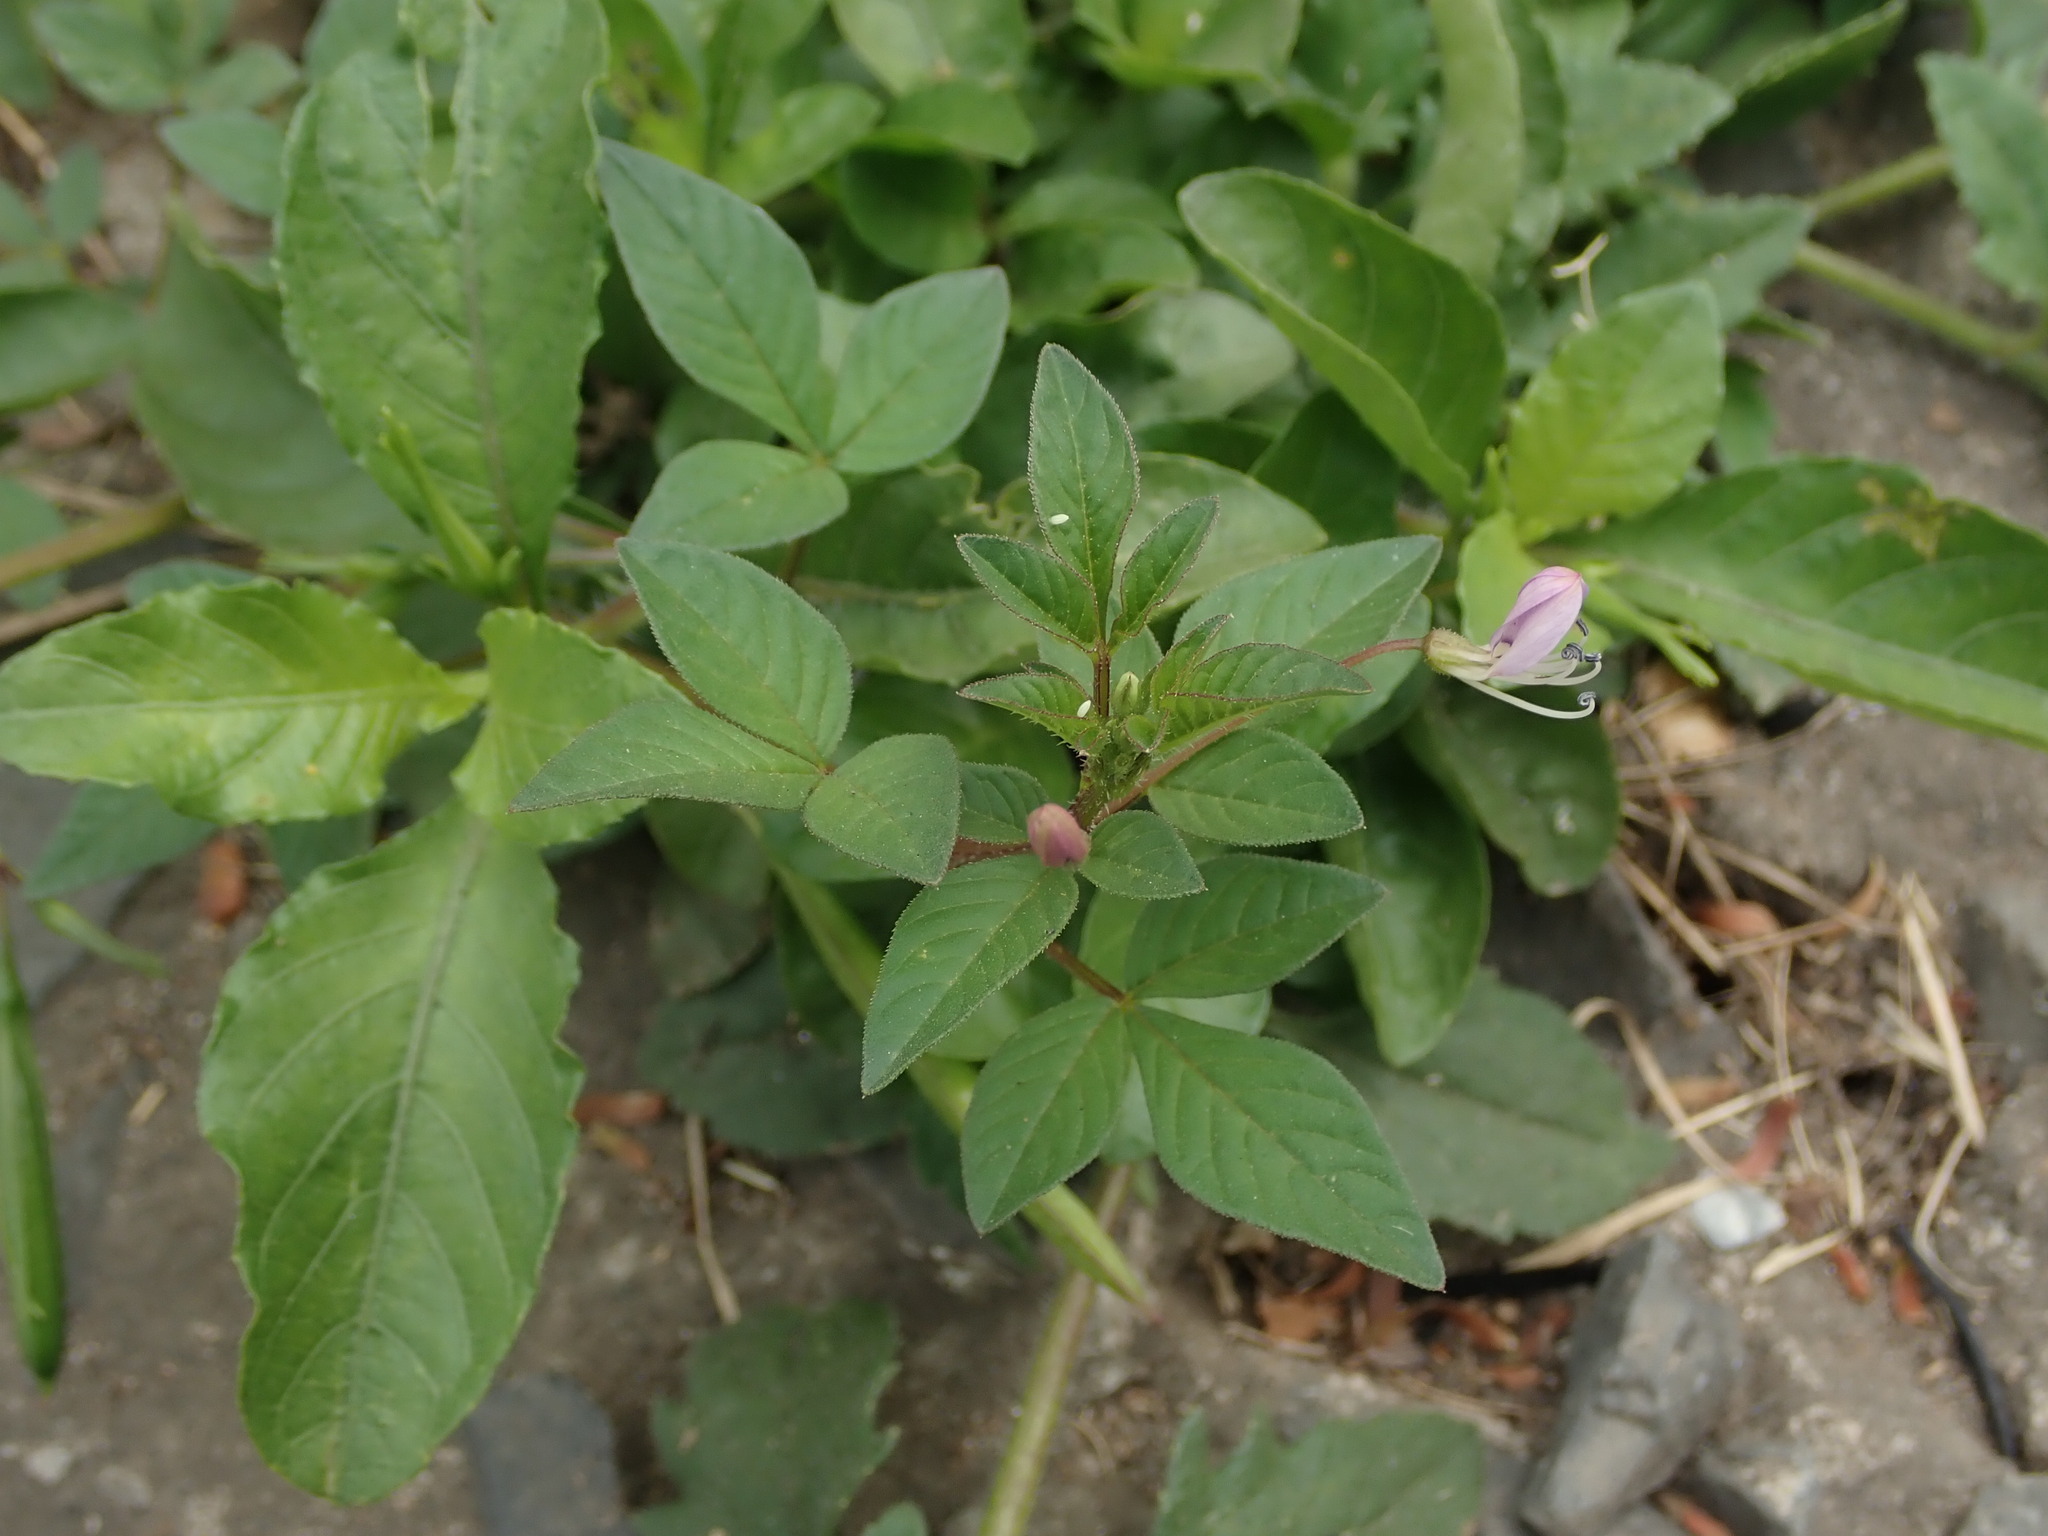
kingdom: Plantae
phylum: Tracheophyta
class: Magnoliopsida
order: Brassicales
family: Cleomaceae
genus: Sieruela
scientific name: Sieruela rutidosperma
